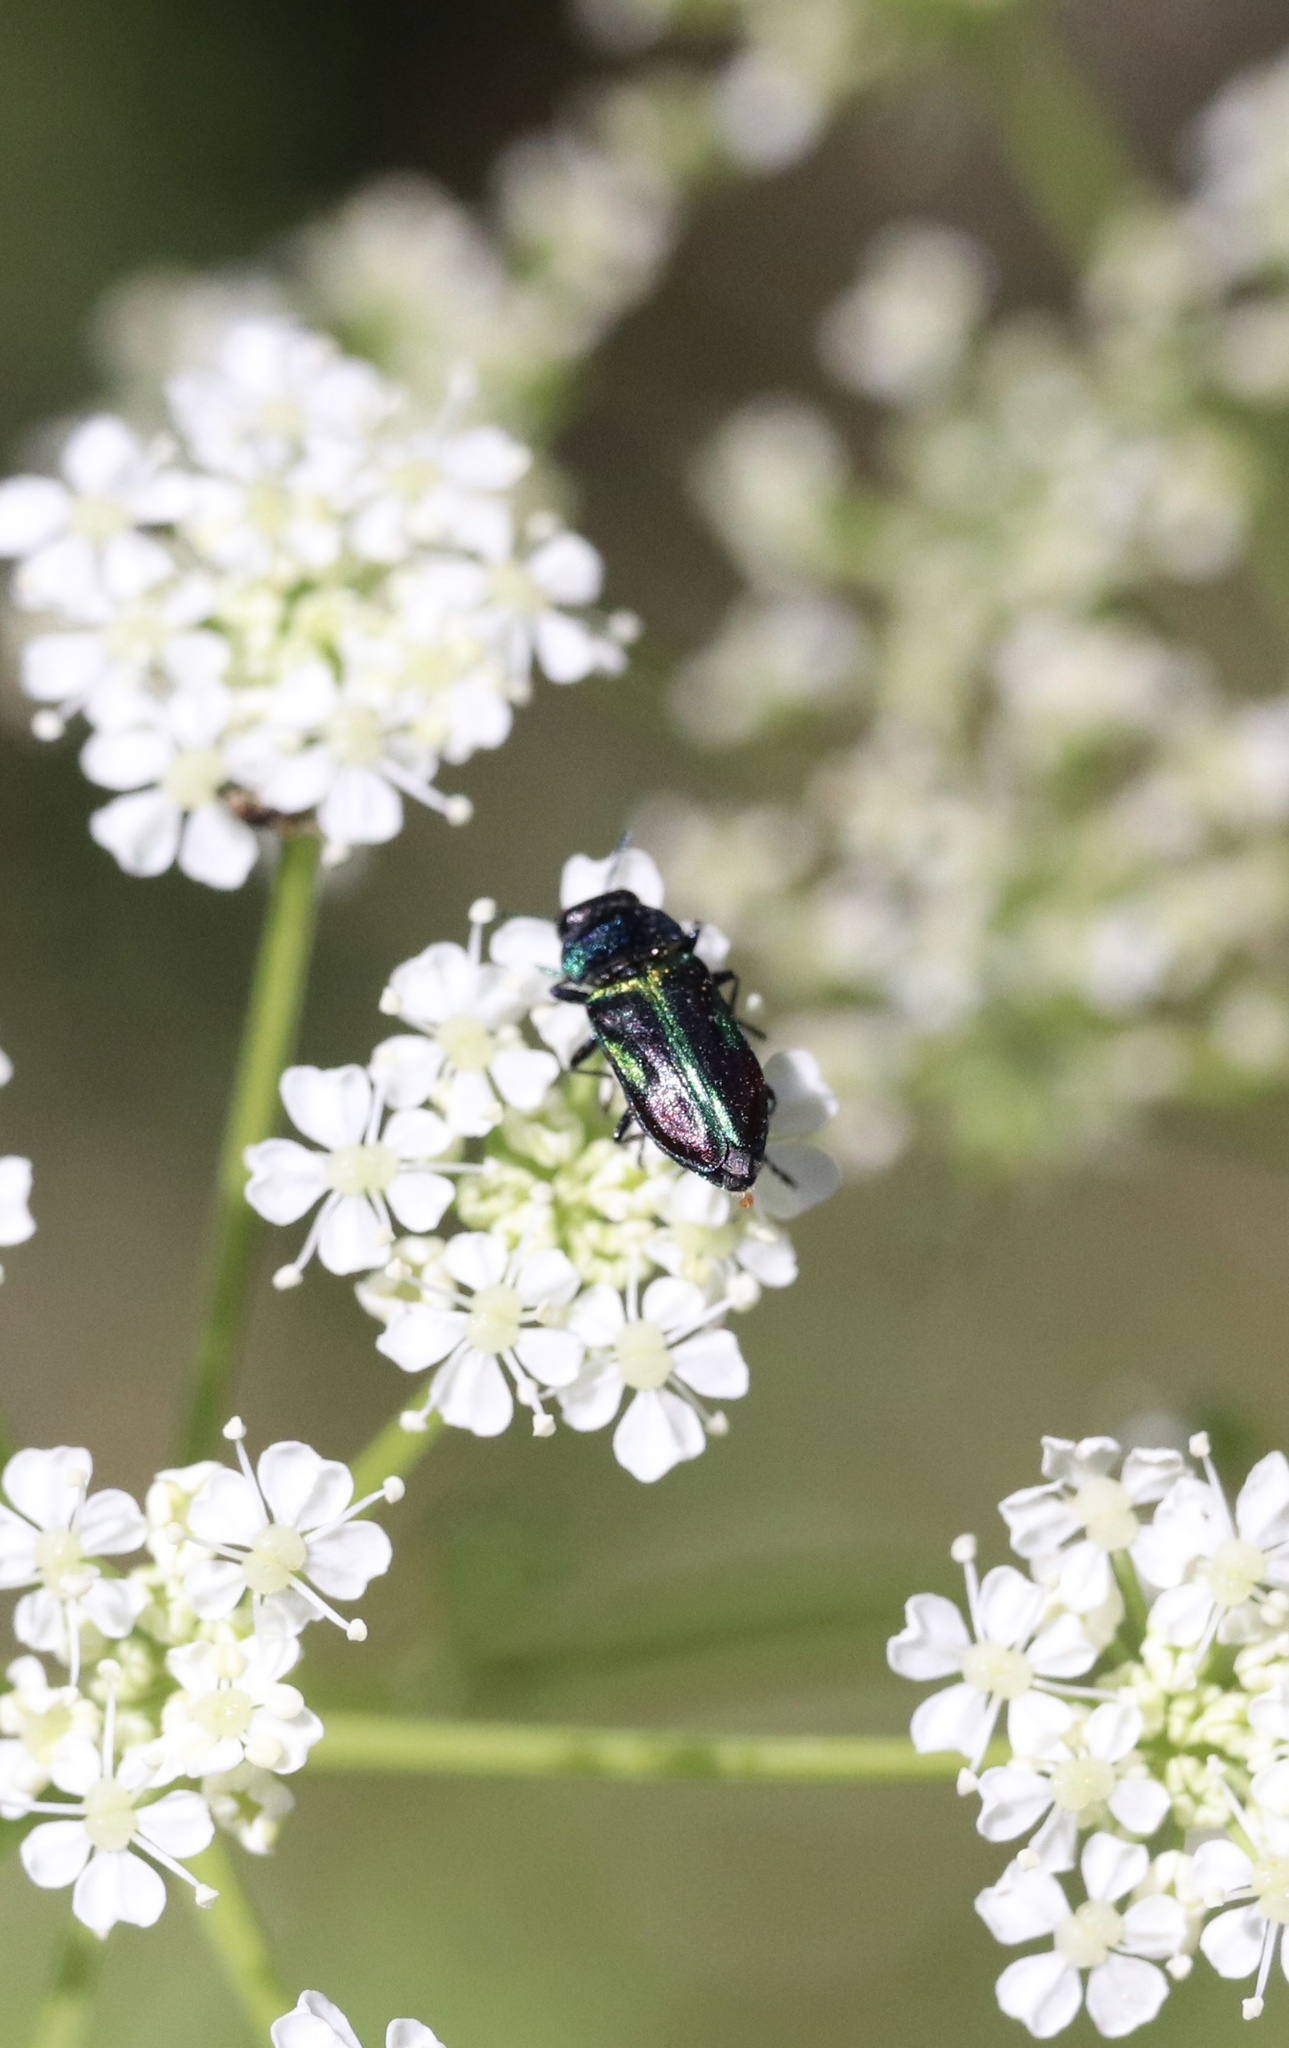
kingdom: Animalia
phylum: Arthropoda
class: Insecta
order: Coleoptera
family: Buprestidae
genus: Bilyaxia
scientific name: Bilyaxia concinna
